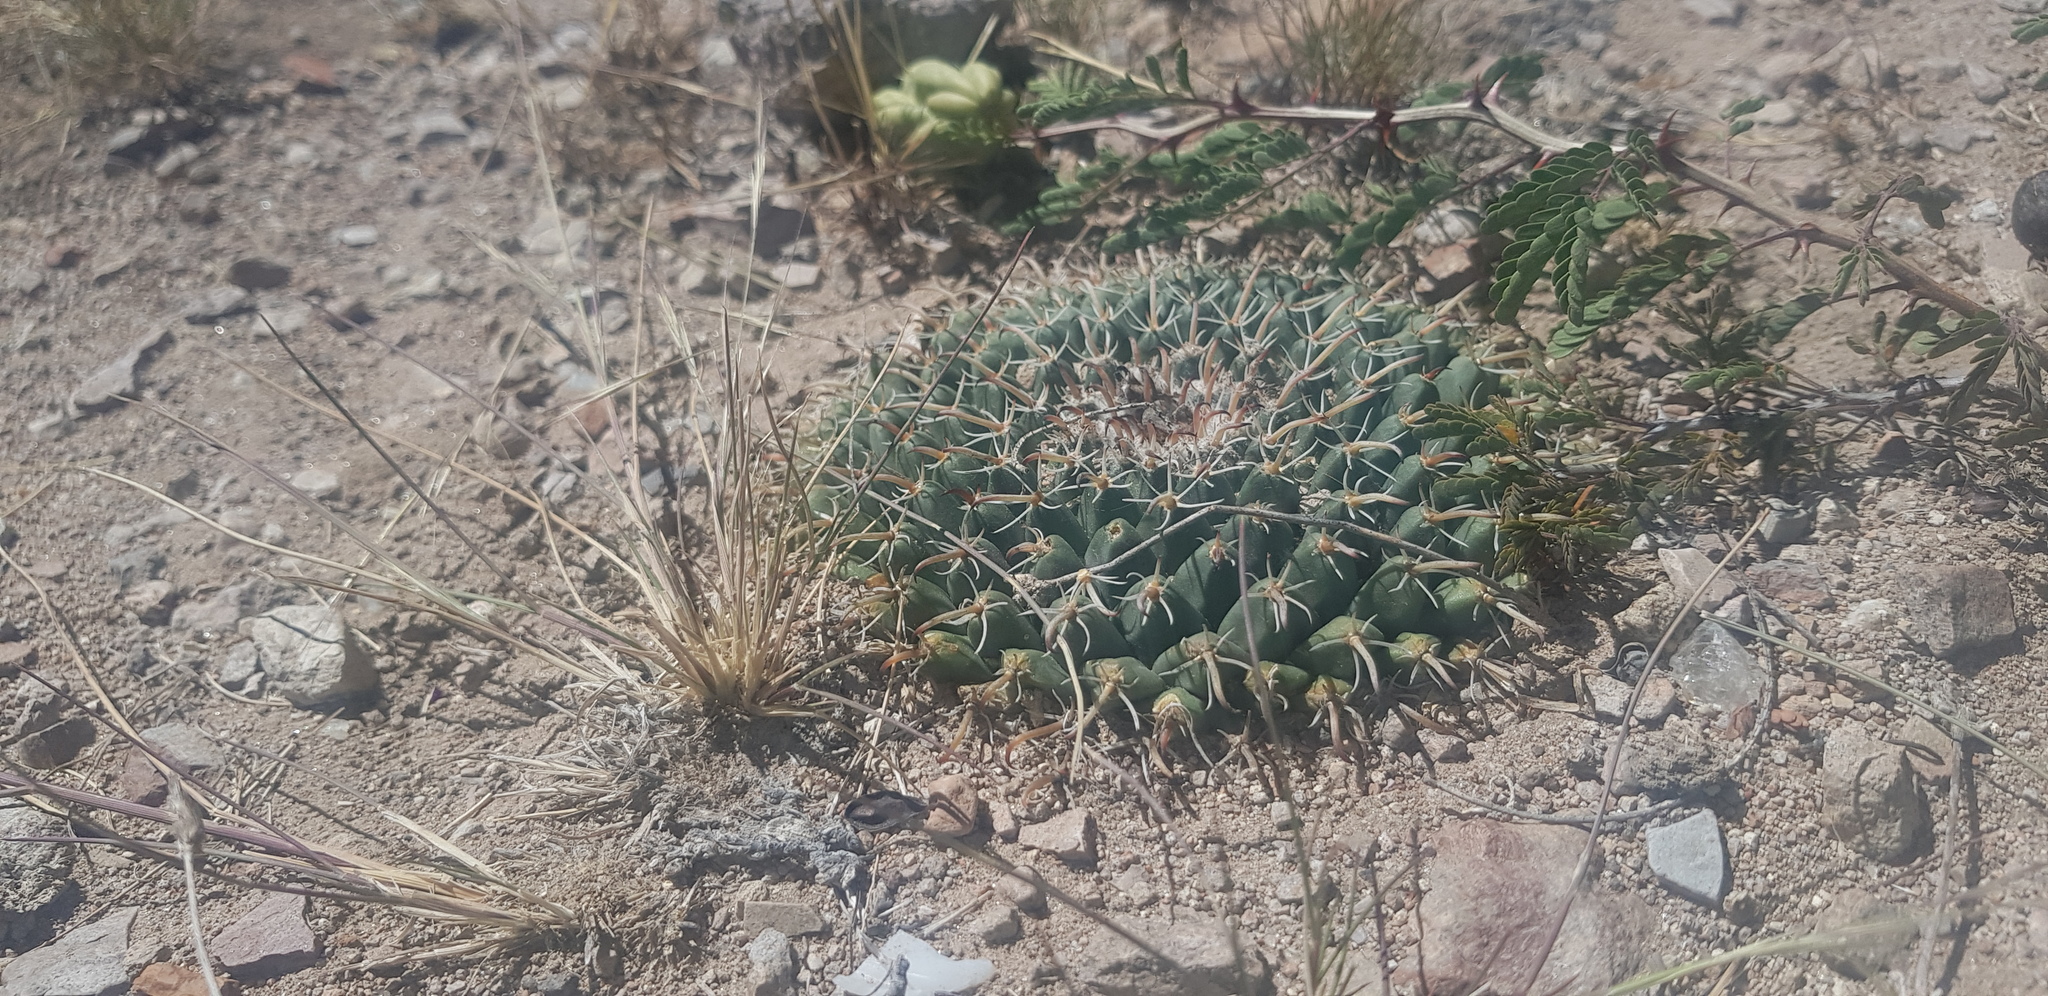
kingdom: Plantae
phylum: Tracheophyta
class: Magnoliopsida
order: Caryophyllales
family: Cactaceae
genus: Mammillaria
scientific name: Mammillaria uncinata
